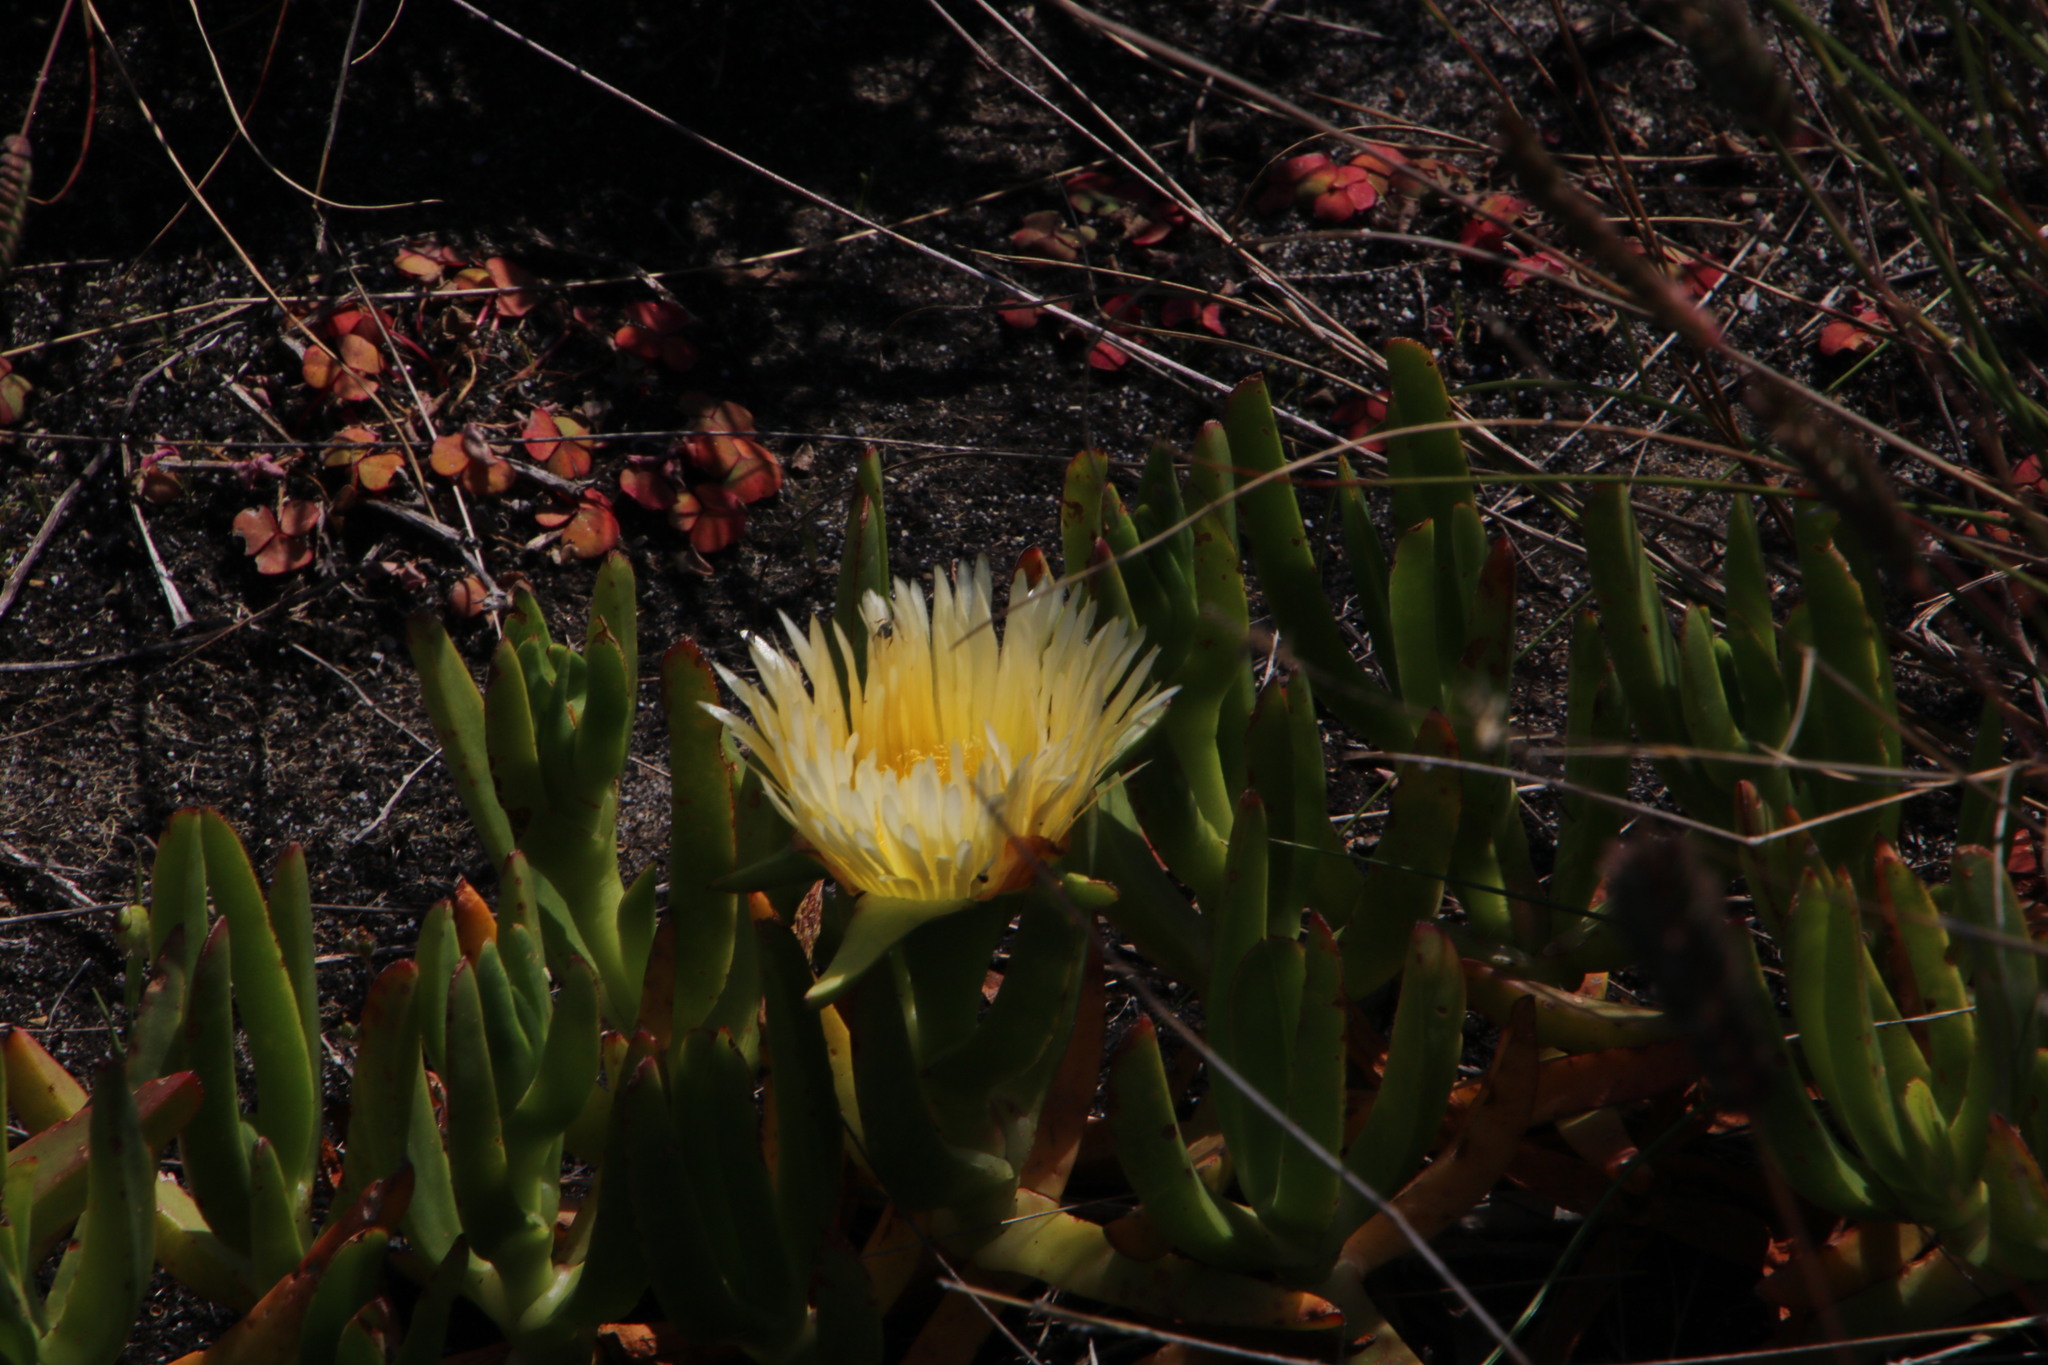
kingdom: Plantae
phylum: Tracheophyta
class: Magnoliopsida
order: Caryophyllales
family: Aizoaceae
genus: Carpobrotus
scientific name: Carpobrotus edulis
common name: Hottentot-fig
